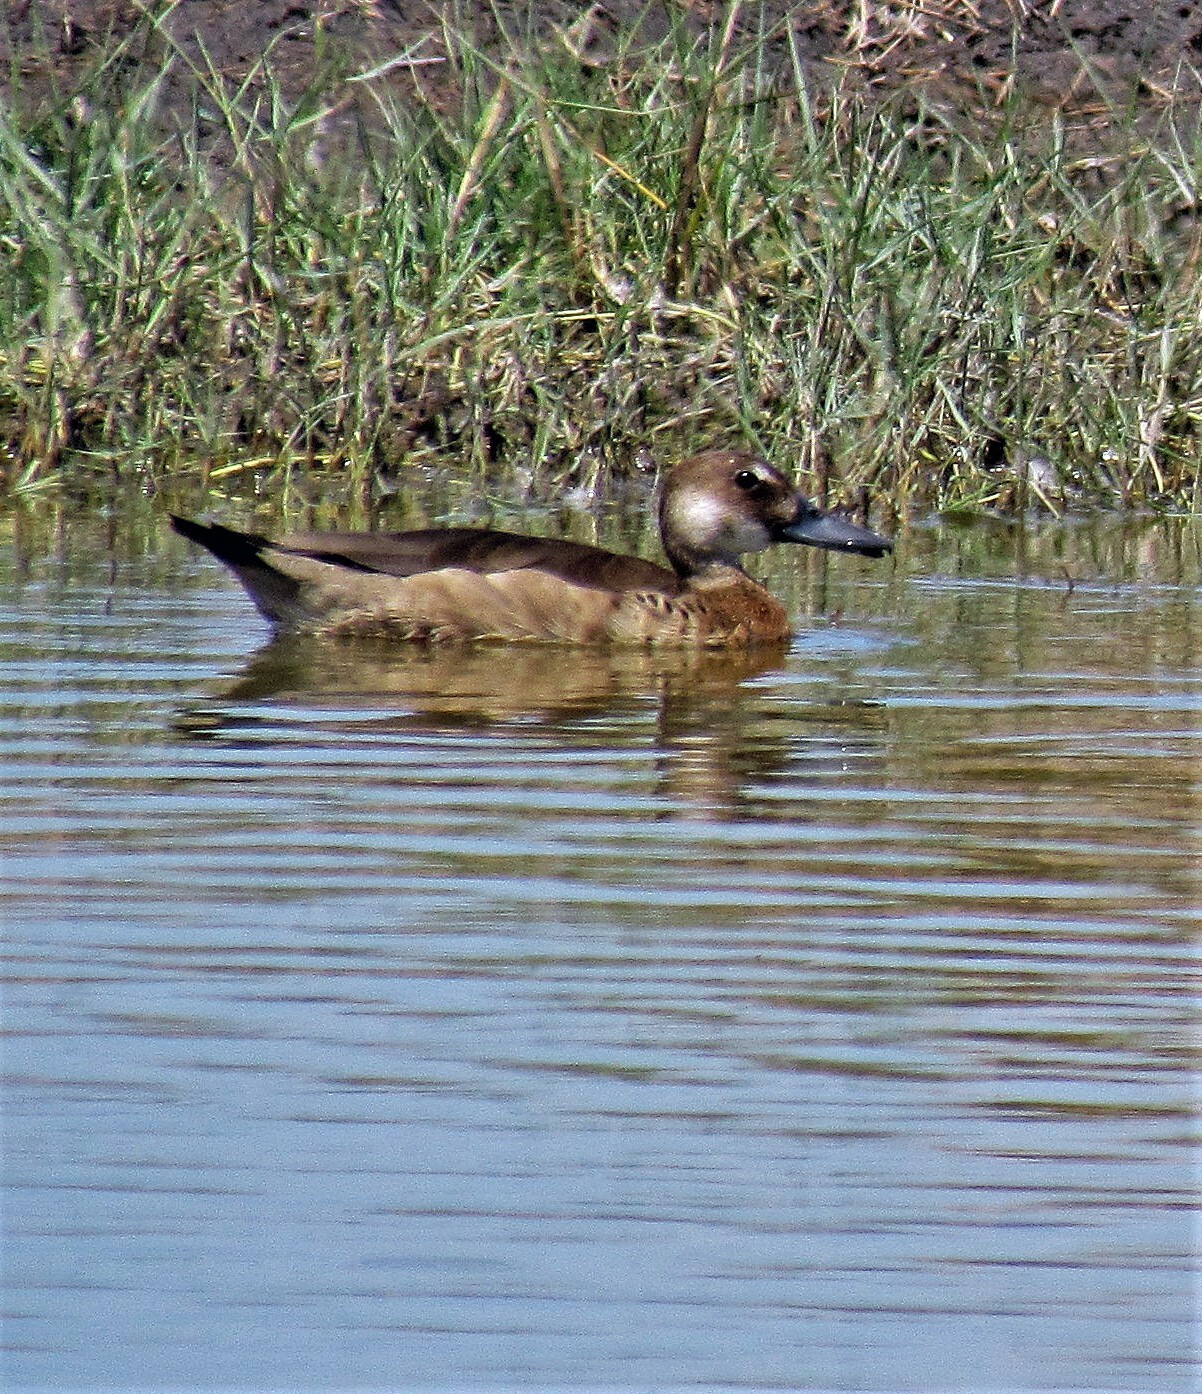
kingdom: Animalia
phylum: Chordata
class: Aves
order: Anseriformes
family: Anatidae
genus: Amazonetta
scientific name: Amazonetta brasiliensis
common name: Brazilian teal
